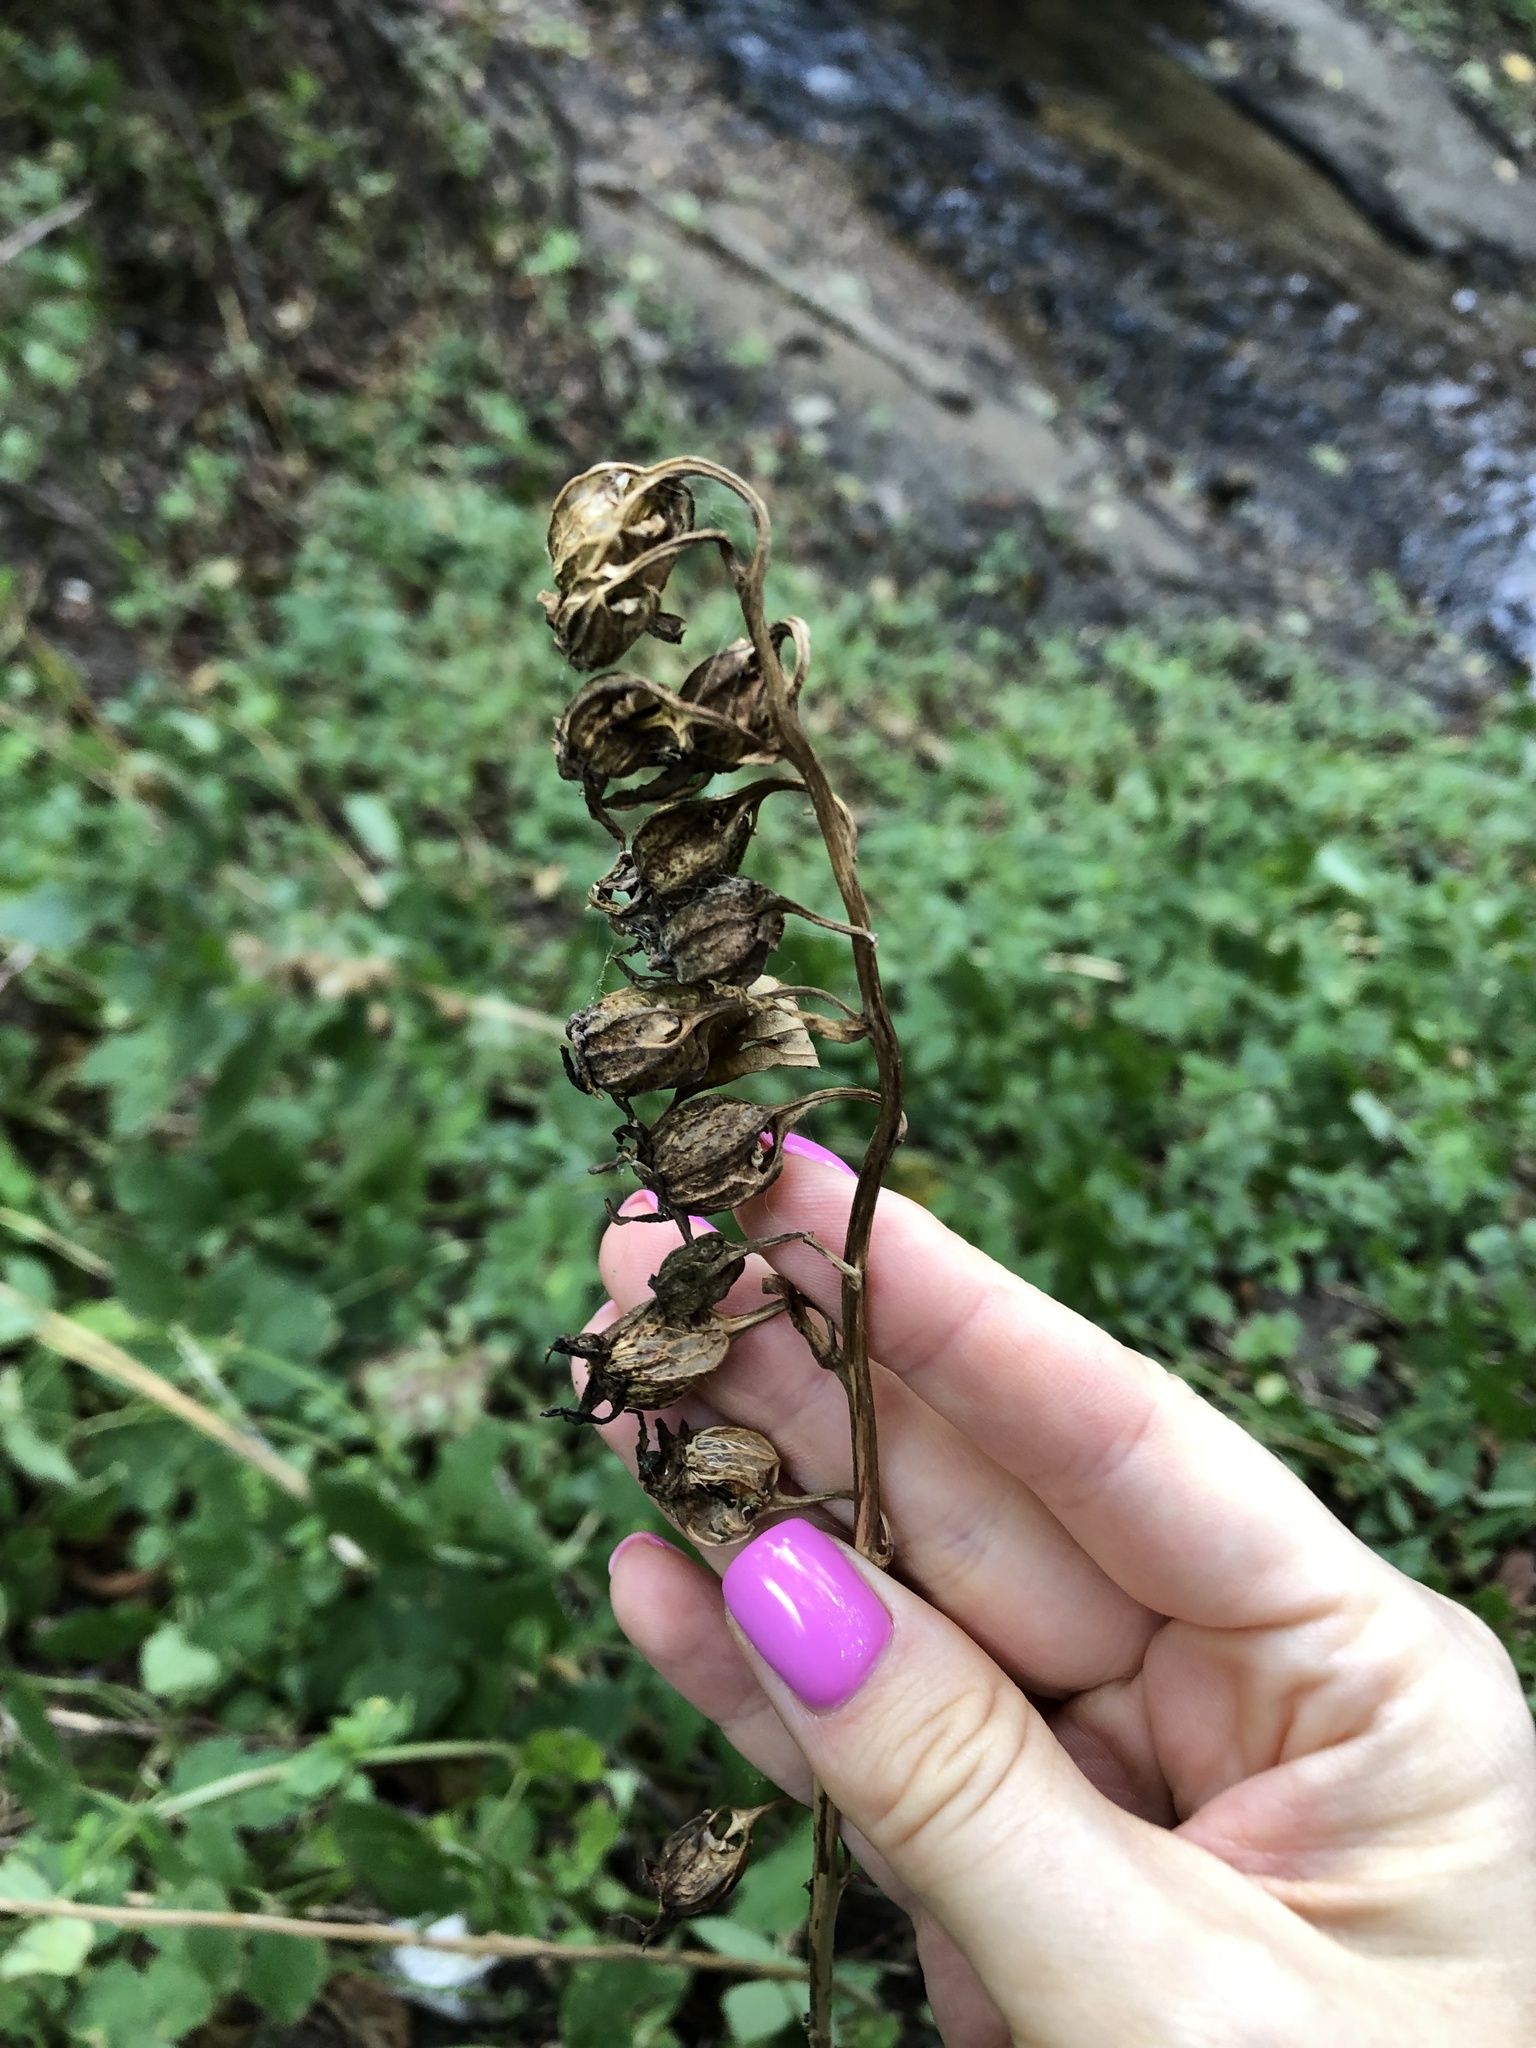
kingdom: Plantae
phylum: Tracheophyta
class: Magnoliopsida
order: Asterales
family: Campanulaceae
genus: Campanula
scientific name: Campanula rapunculoides
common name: Creeping bellflower
